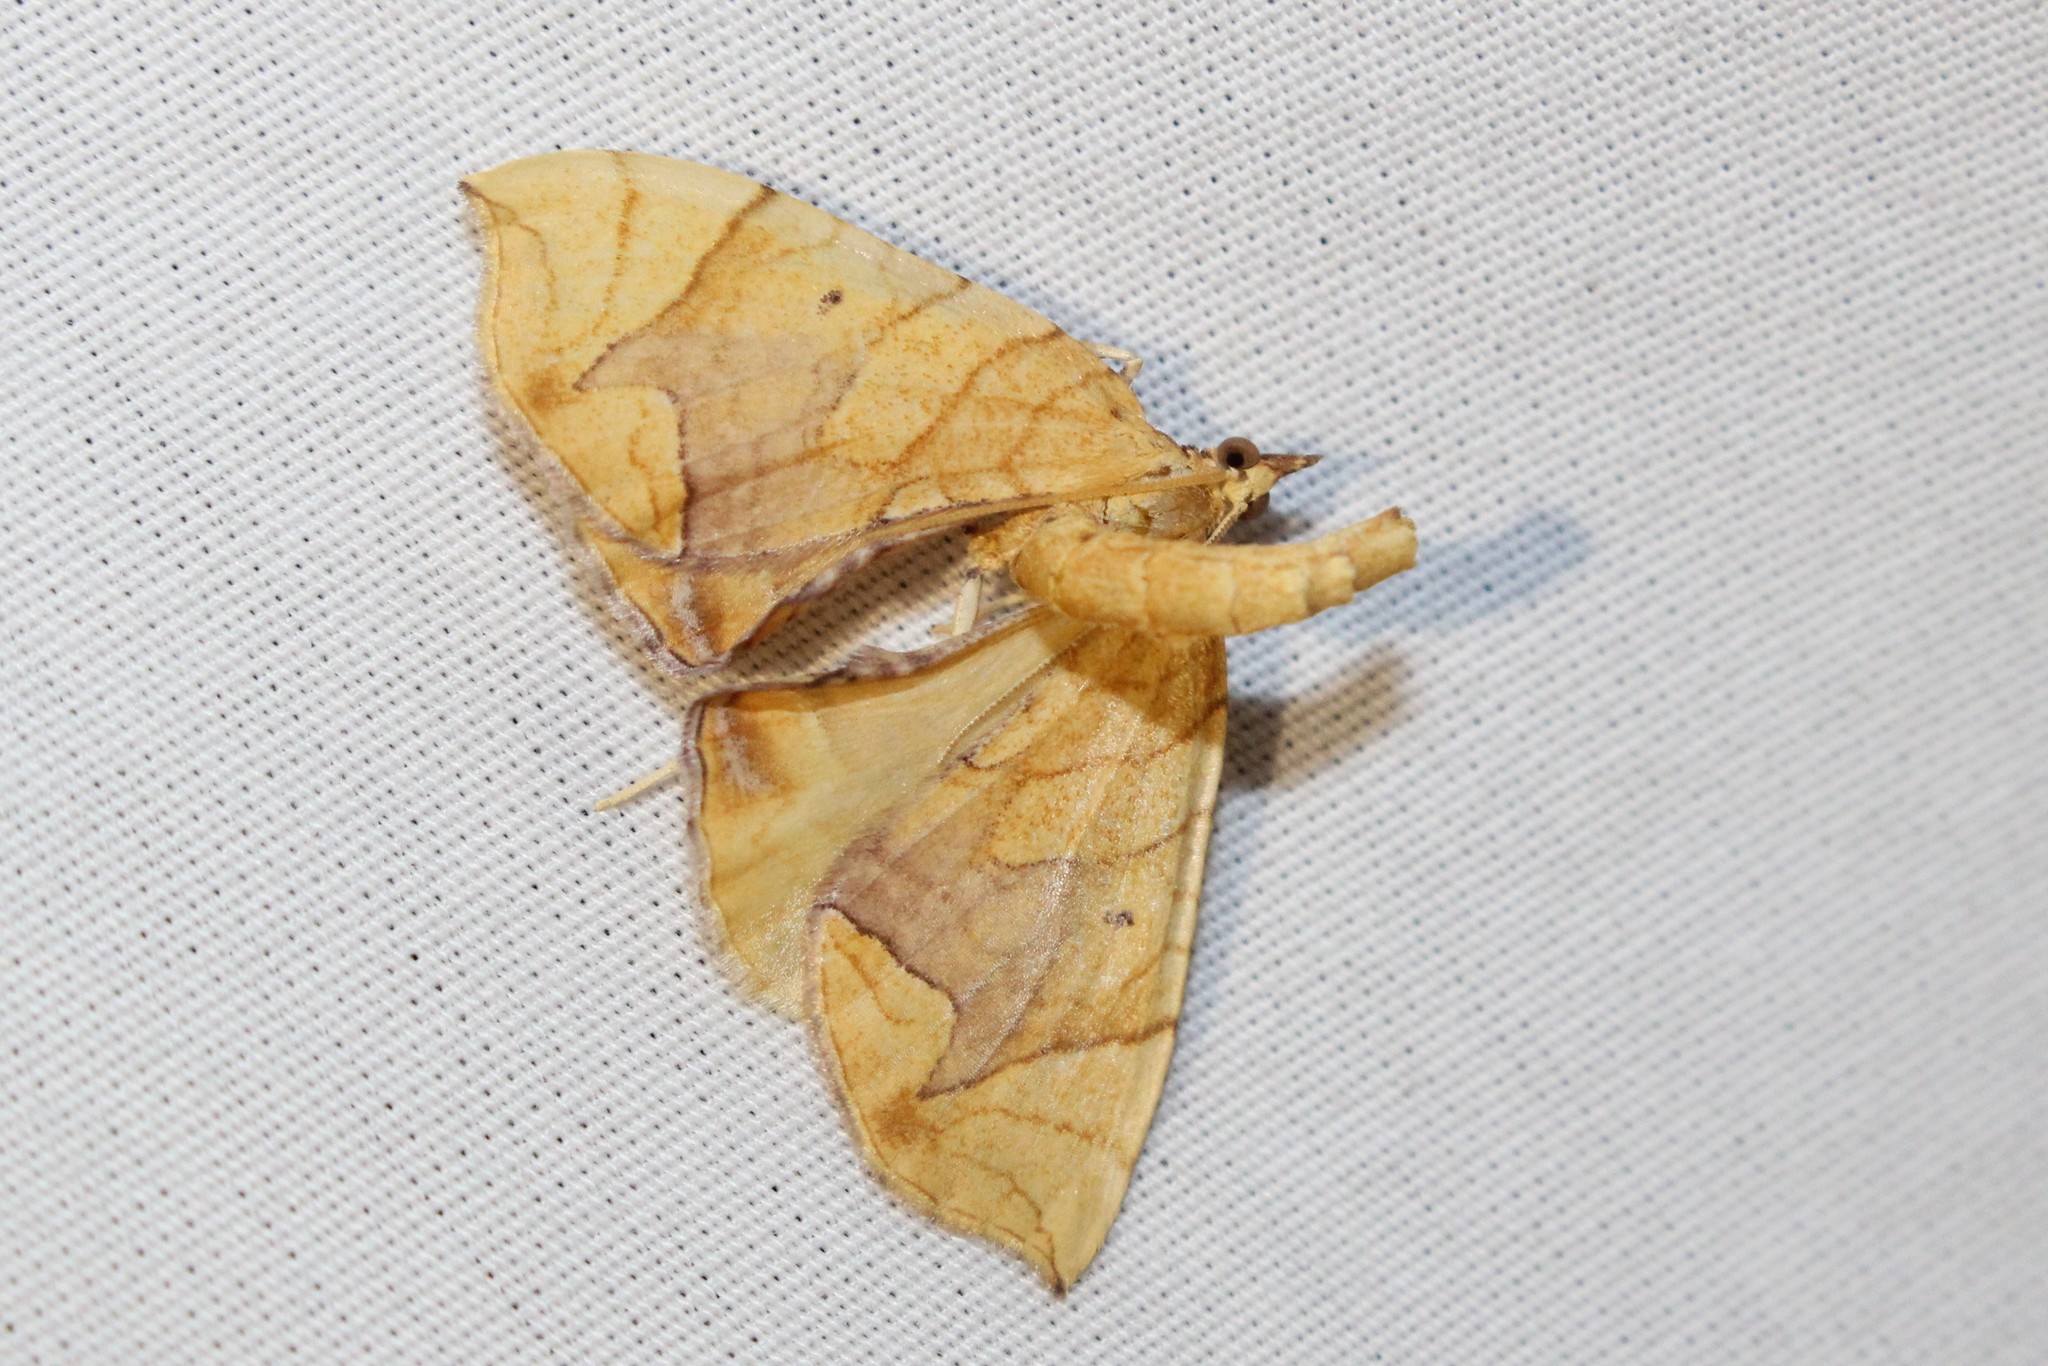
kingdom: Animalia
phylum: Arthropoda
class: Insecta
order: Lepidoptera
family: Geometridae
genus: Eulithis
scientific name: Eulithis
